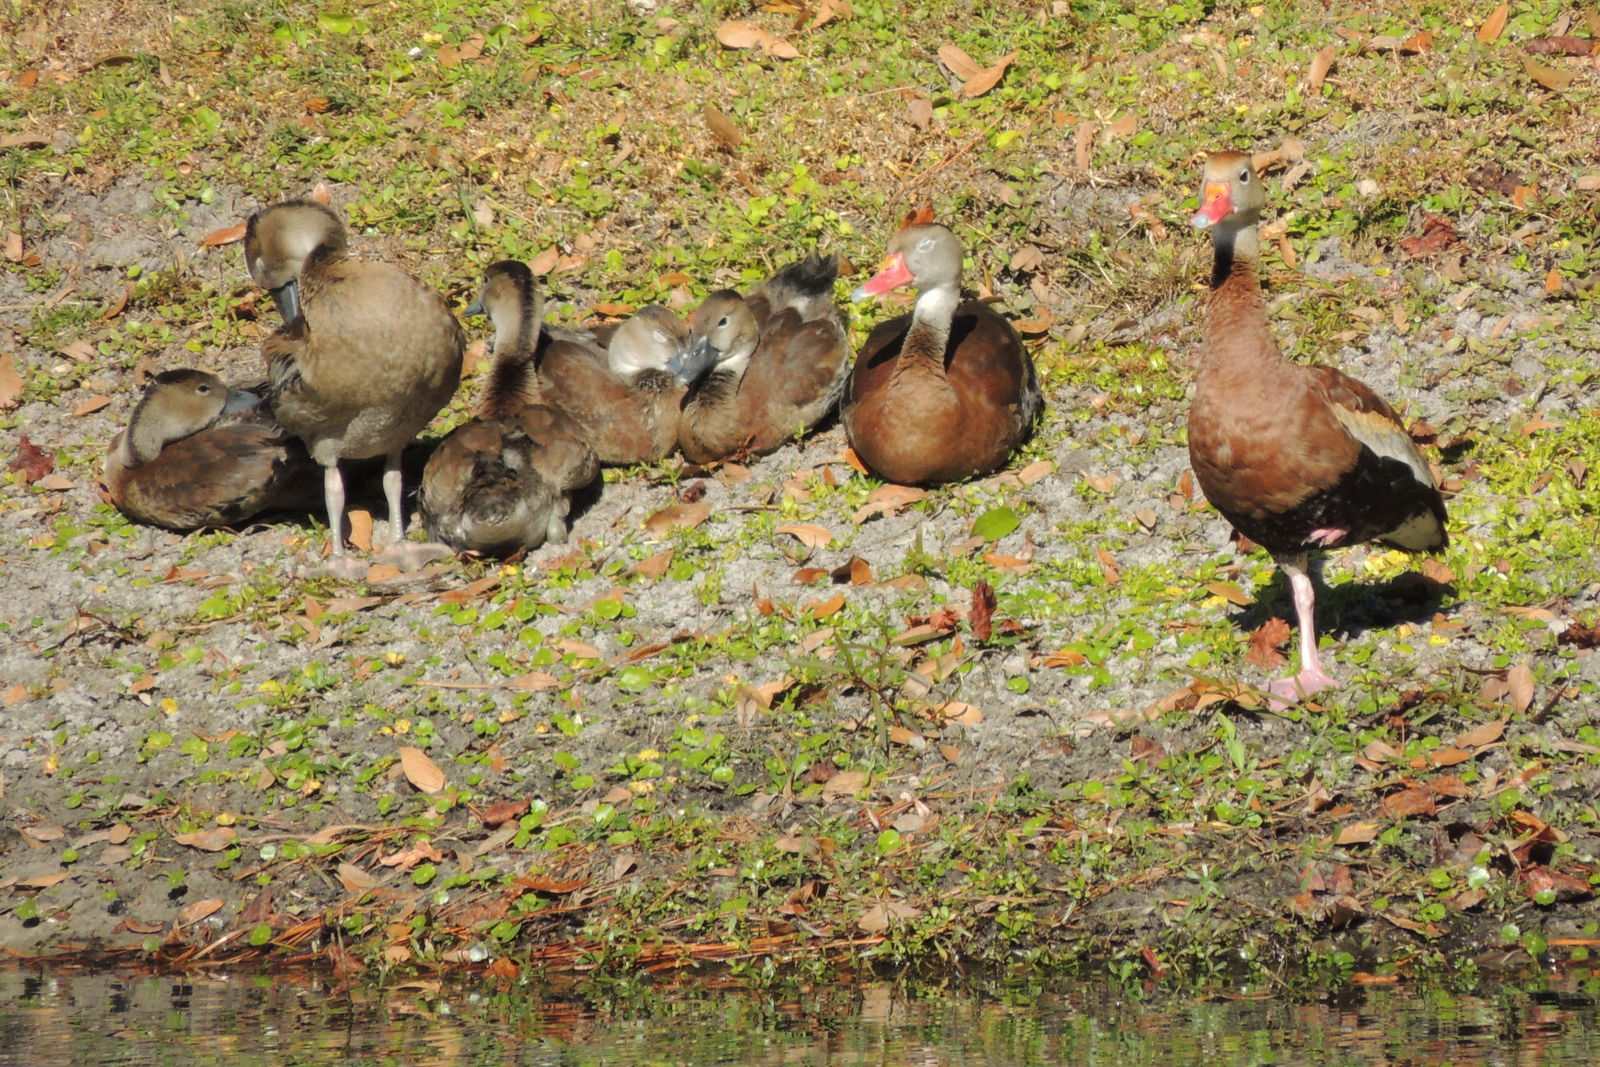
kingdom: Animalia
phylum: Chordata
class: Aves
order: Anseriformes
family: Anatidae
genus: Dendrocygna
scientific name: Dendrocygna autumnalis
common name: Black-bellied whistling duck
